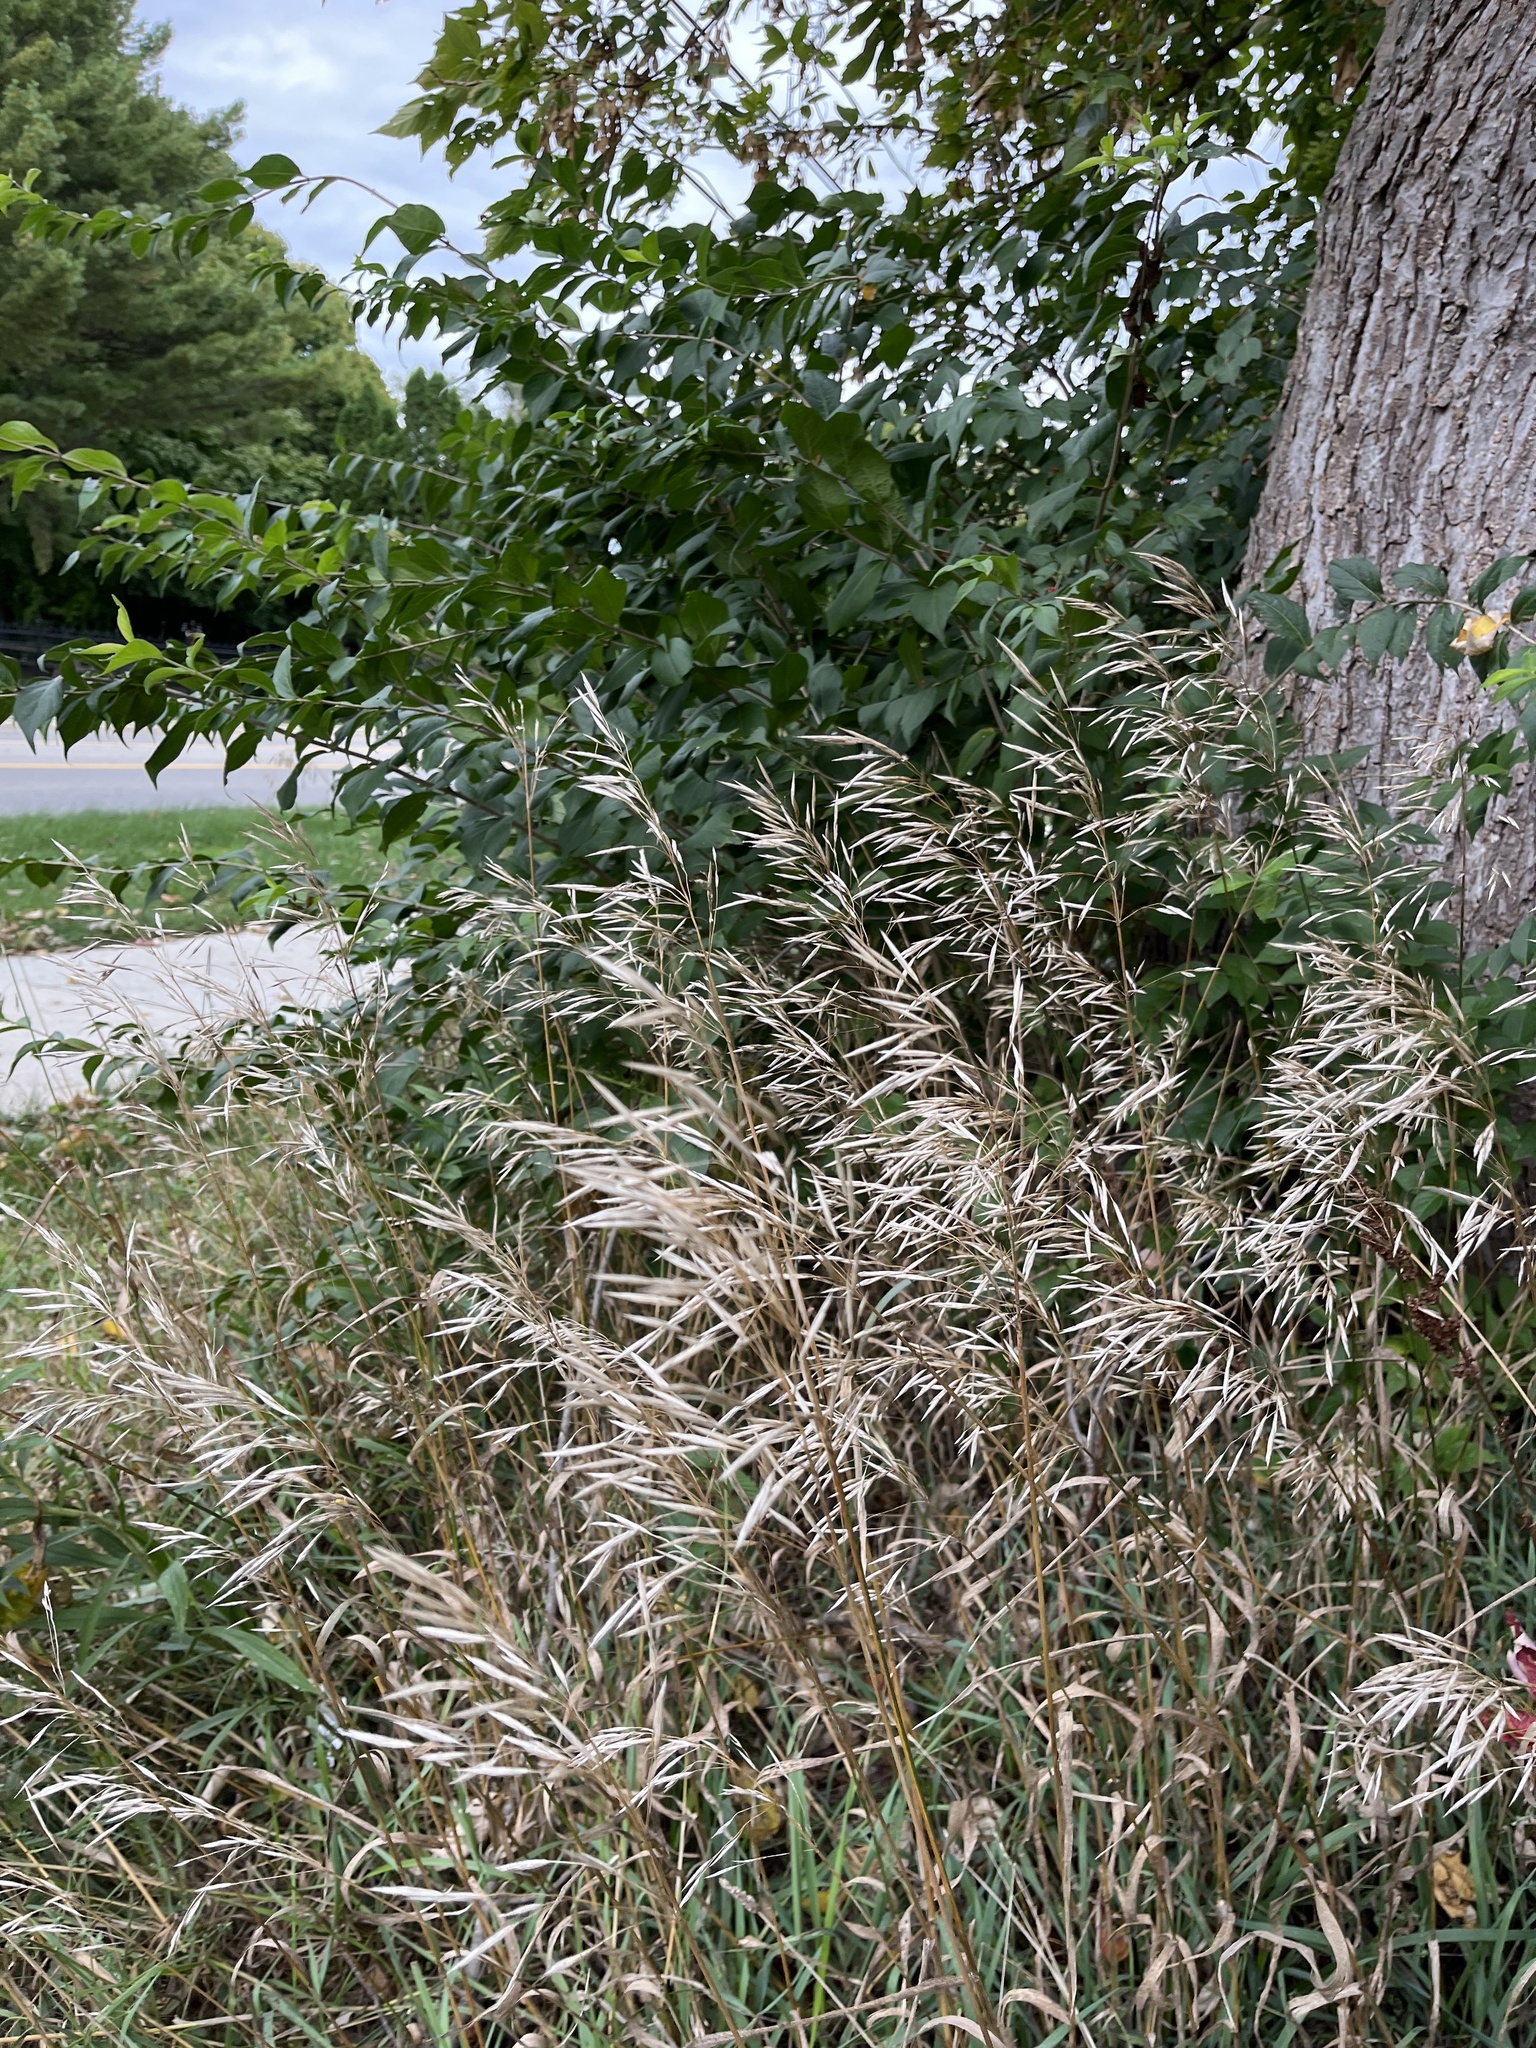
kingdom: Plantae
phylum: Tracheophyta
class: Liliopsida
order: Poales
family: Poaceae
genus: Bromus
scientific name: Bromus inermis
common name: Smooth brome
